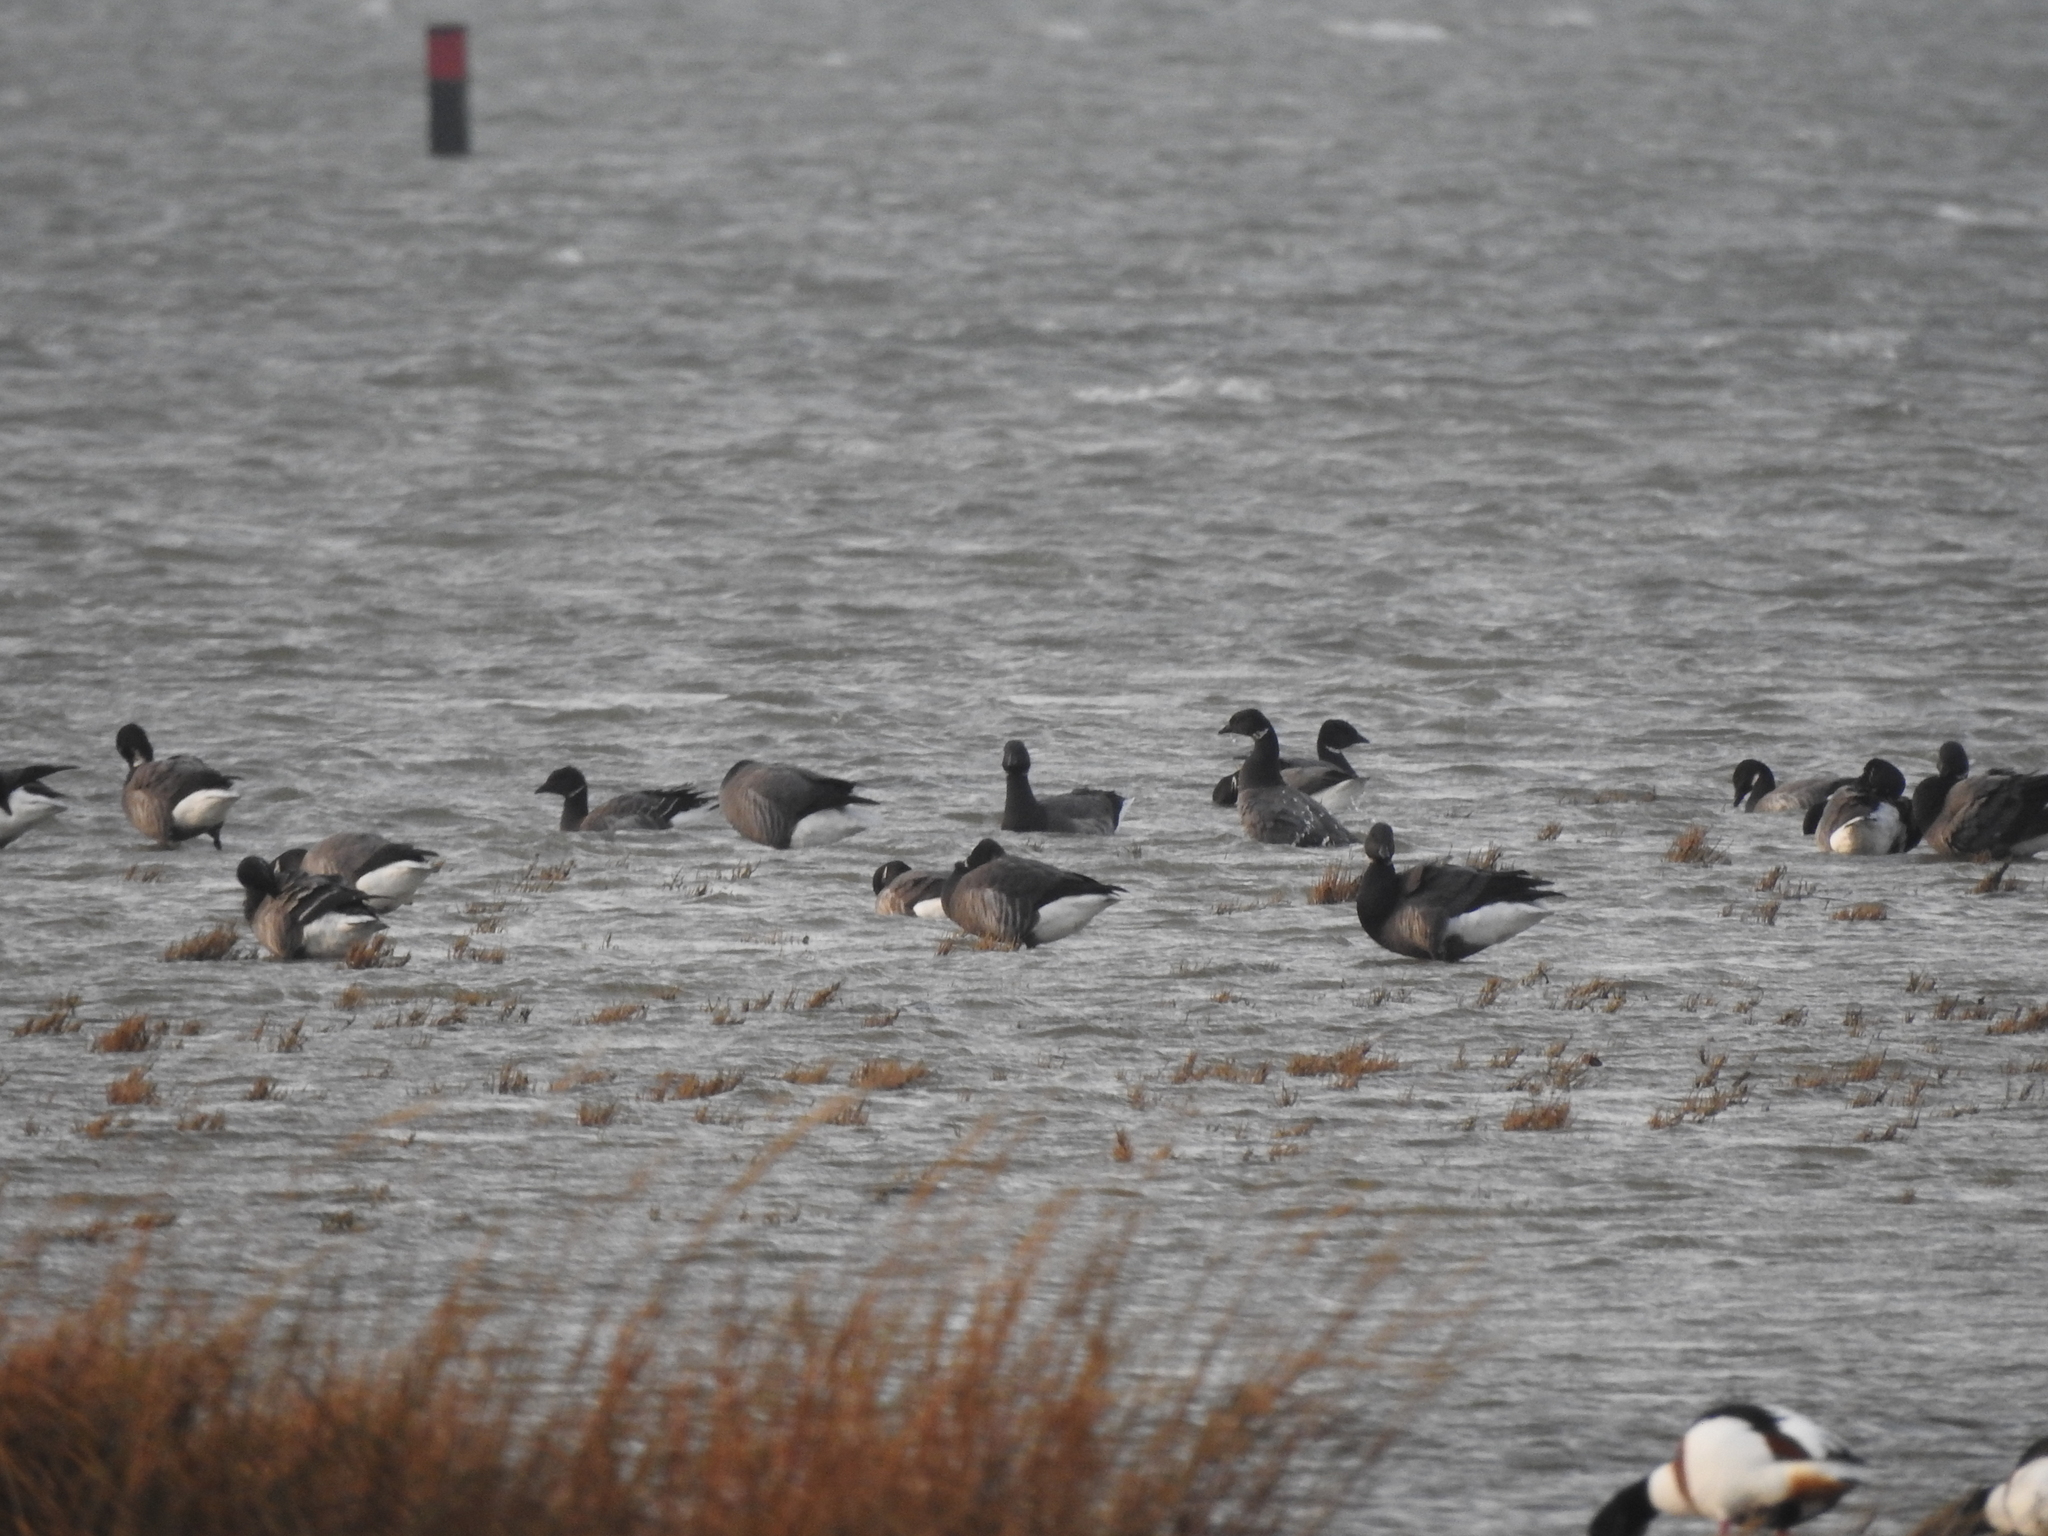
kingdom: Animalia
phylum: Chordata
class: Aves
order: Anseriformes
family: Anatidae
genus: Branta
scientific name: Branta bernicla
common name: Brant goose
